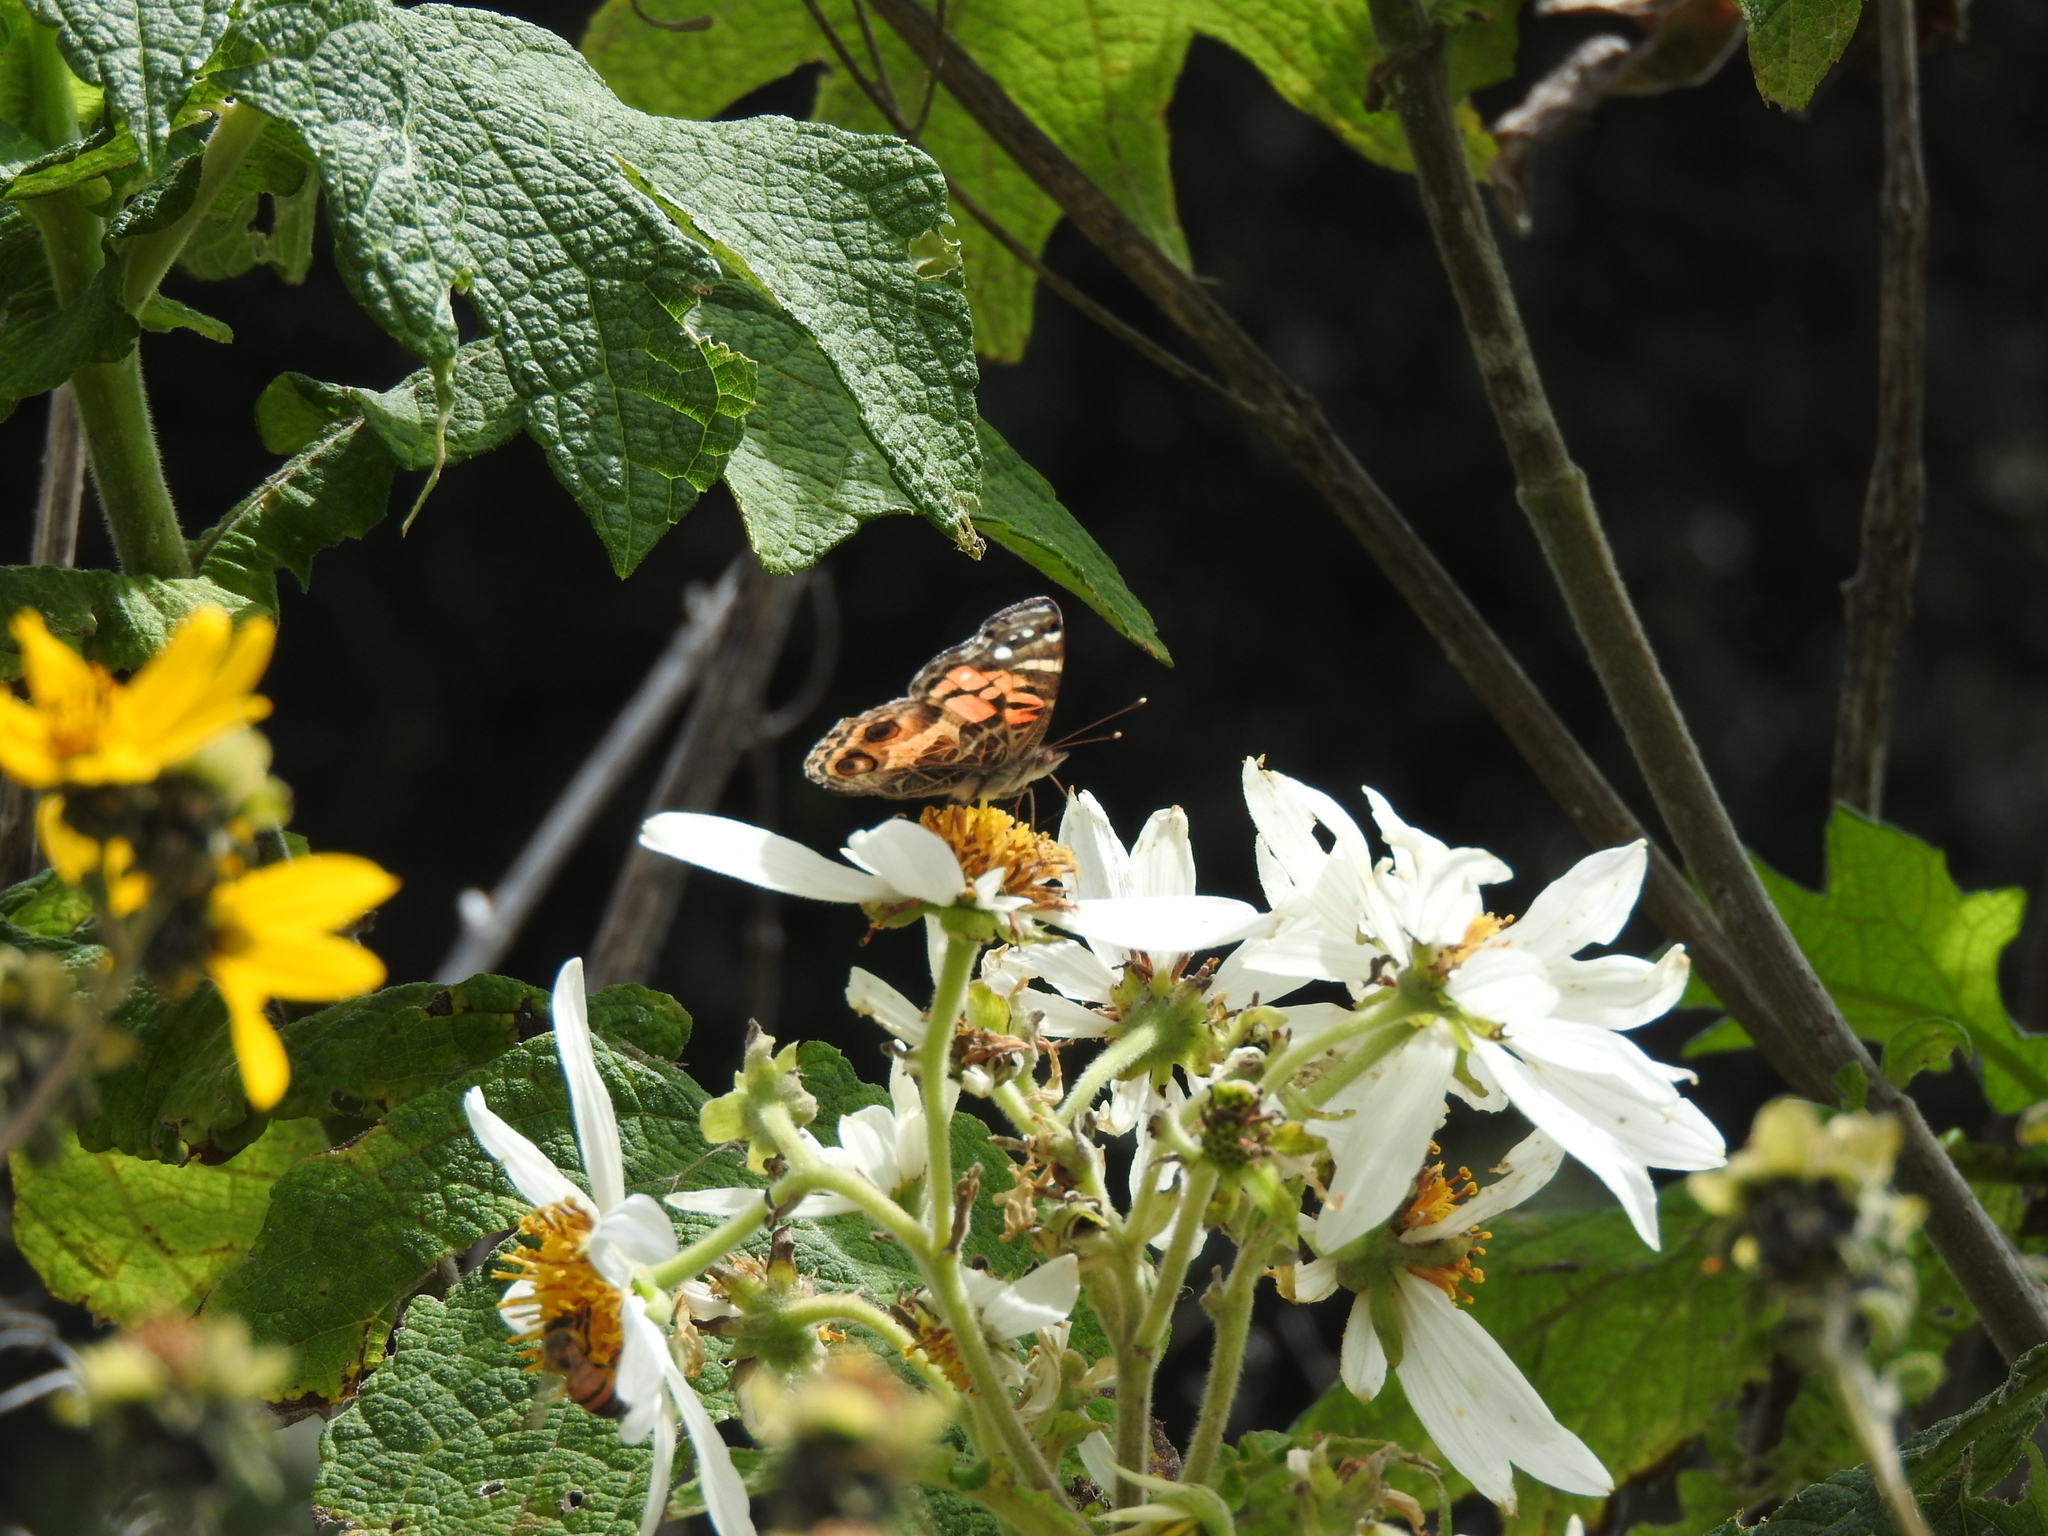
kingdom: Animalia
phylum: Arthropoda
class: Insecta
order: Lepidoptera
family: Nymphalidae
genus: Vanessa
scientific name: Vanessa virginiensis
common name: American lady
